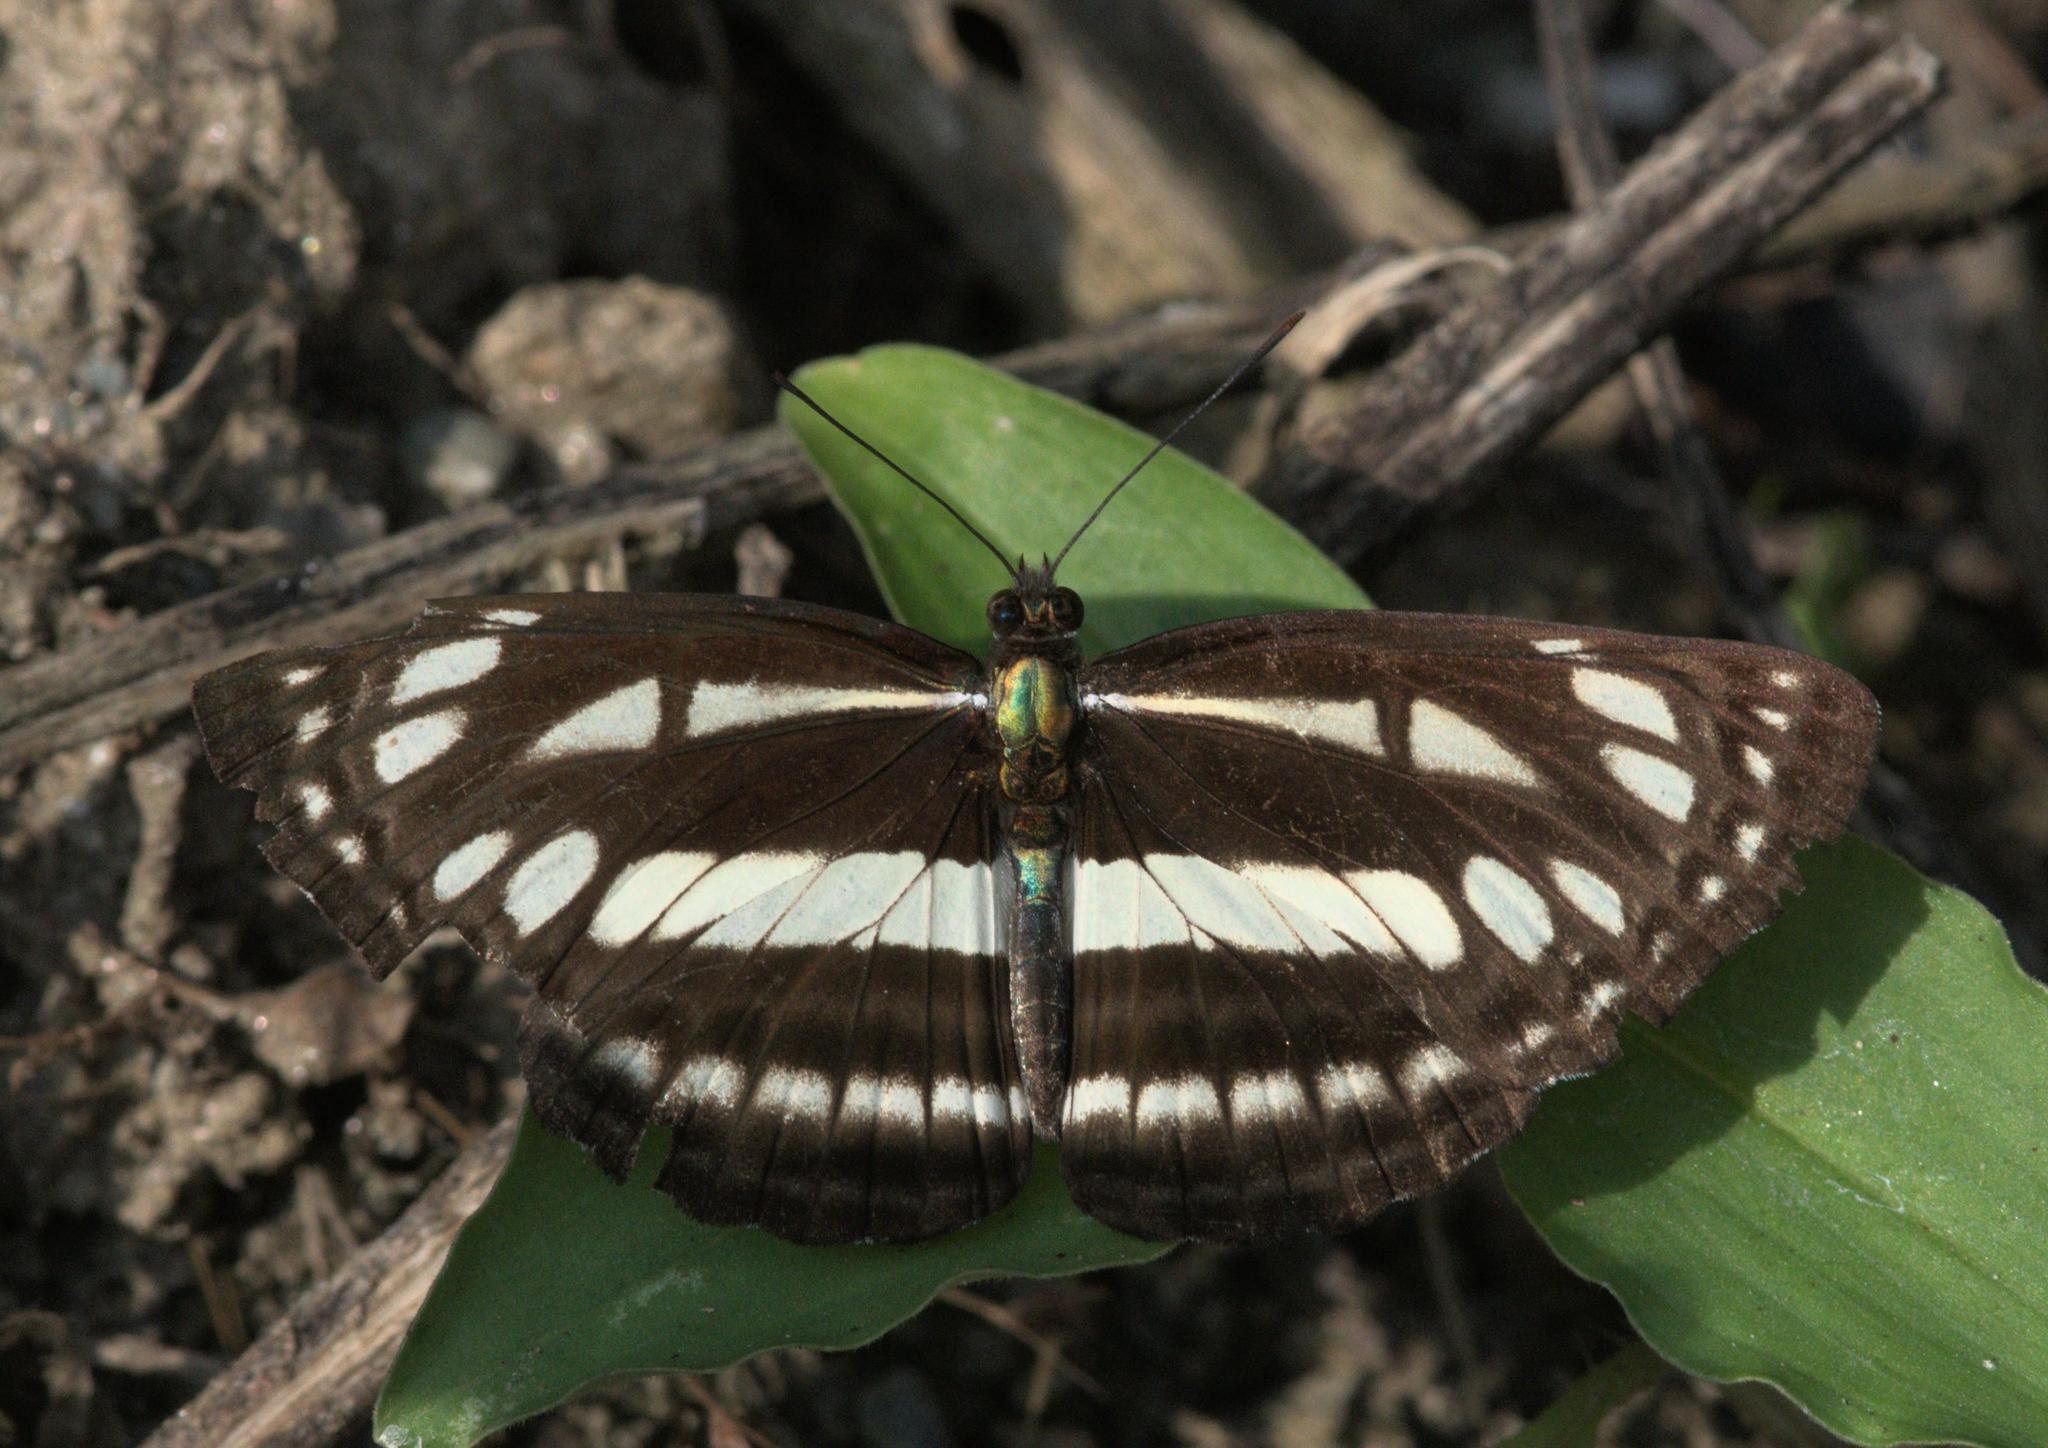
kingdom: Animalia
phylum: Arthropoda
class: Insecta
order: Lepidoptera
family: Nymphalidae
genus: Neptis
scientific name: Neptis soma
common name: Cream-spotted sailor
